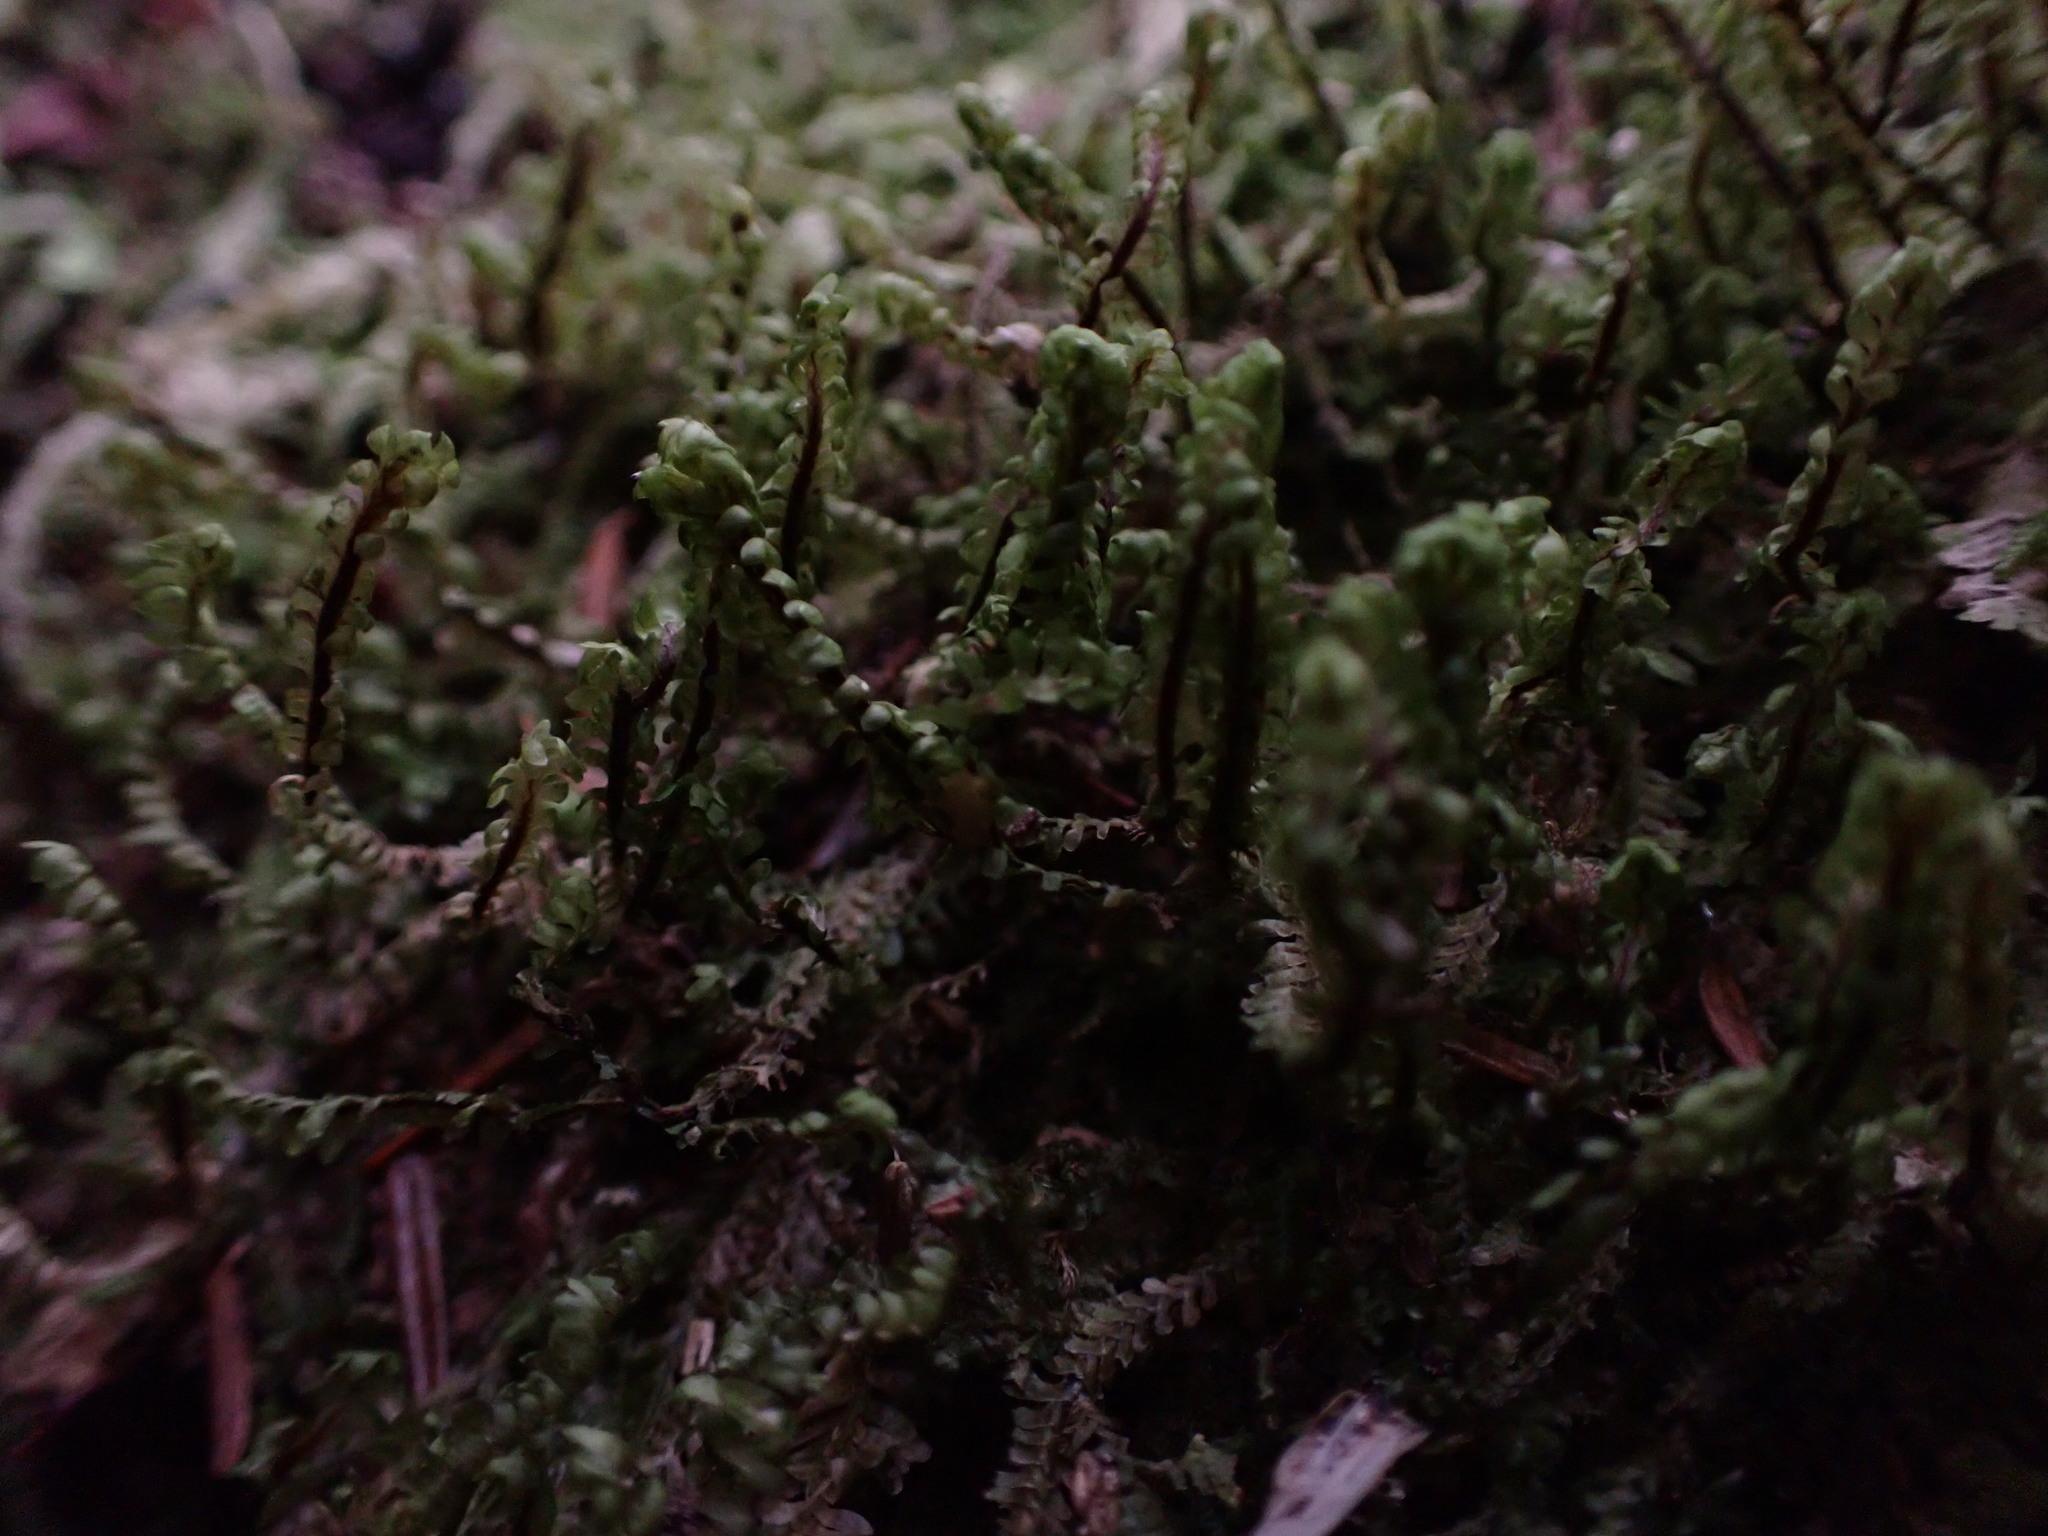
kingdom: Plantae
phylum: Marchantiophyta
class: Jungermanniopsida
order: Jungermanniales
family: Scapaniaceae
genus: Macrodiplophyllum
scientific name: Macrodiplophyllum rubrum
